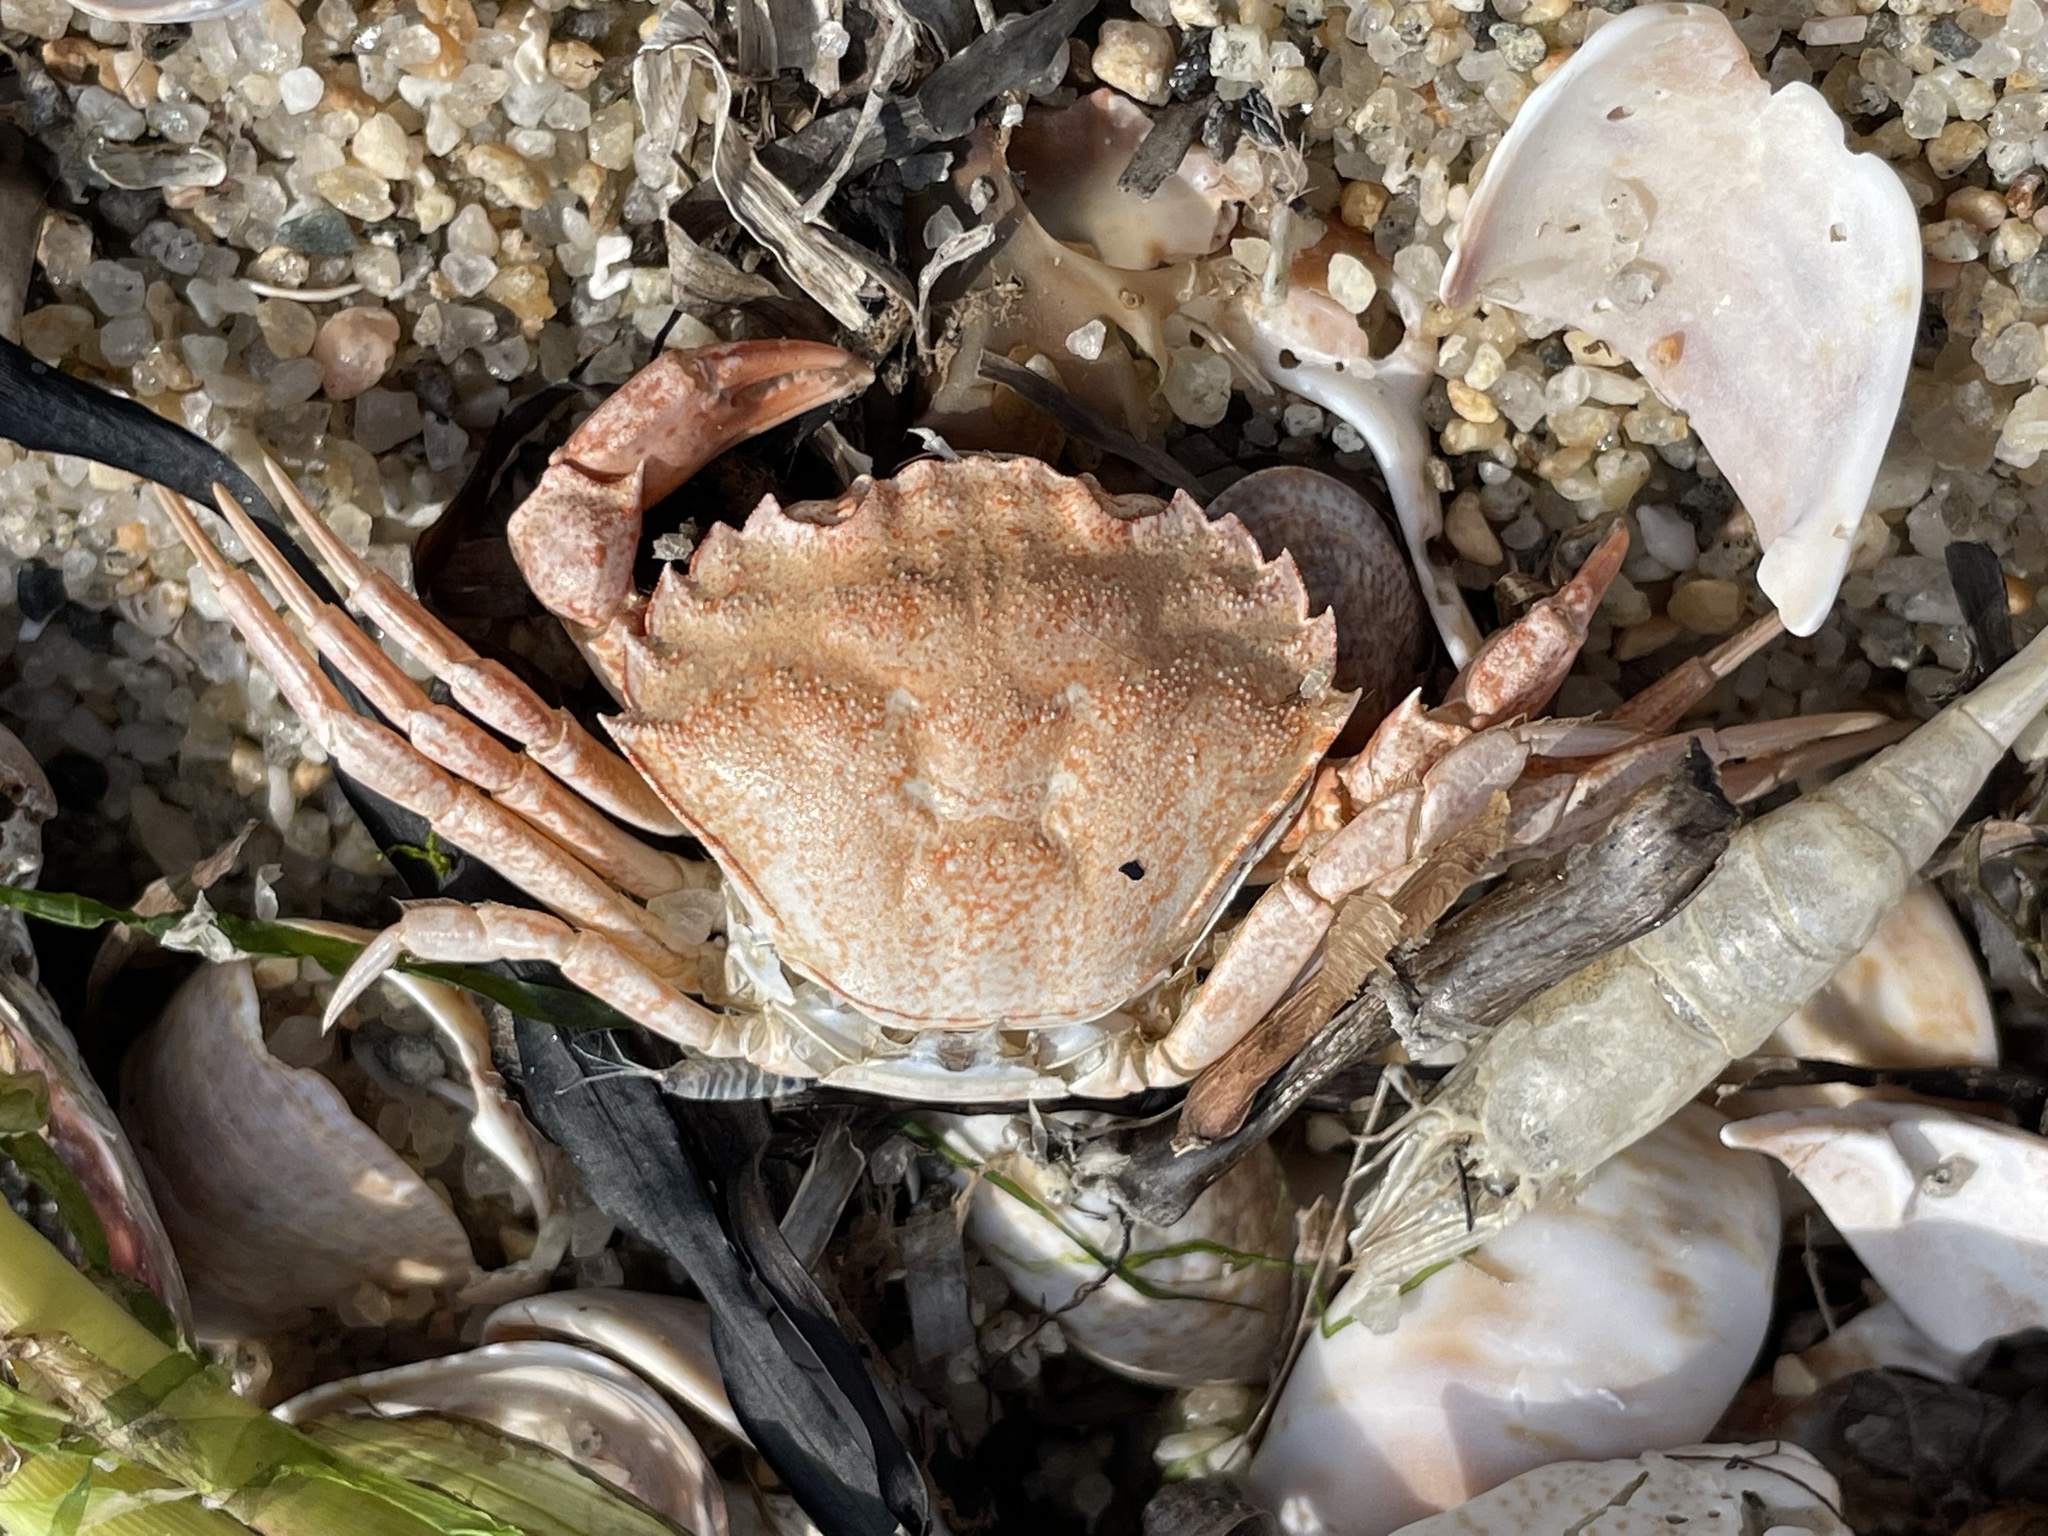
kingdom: Animalia
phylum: Arthropoda
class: Malacostraca
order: Decapoda
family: Carcinidae
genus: Carcinus
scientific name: Carcinus maenas
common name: European green crab
